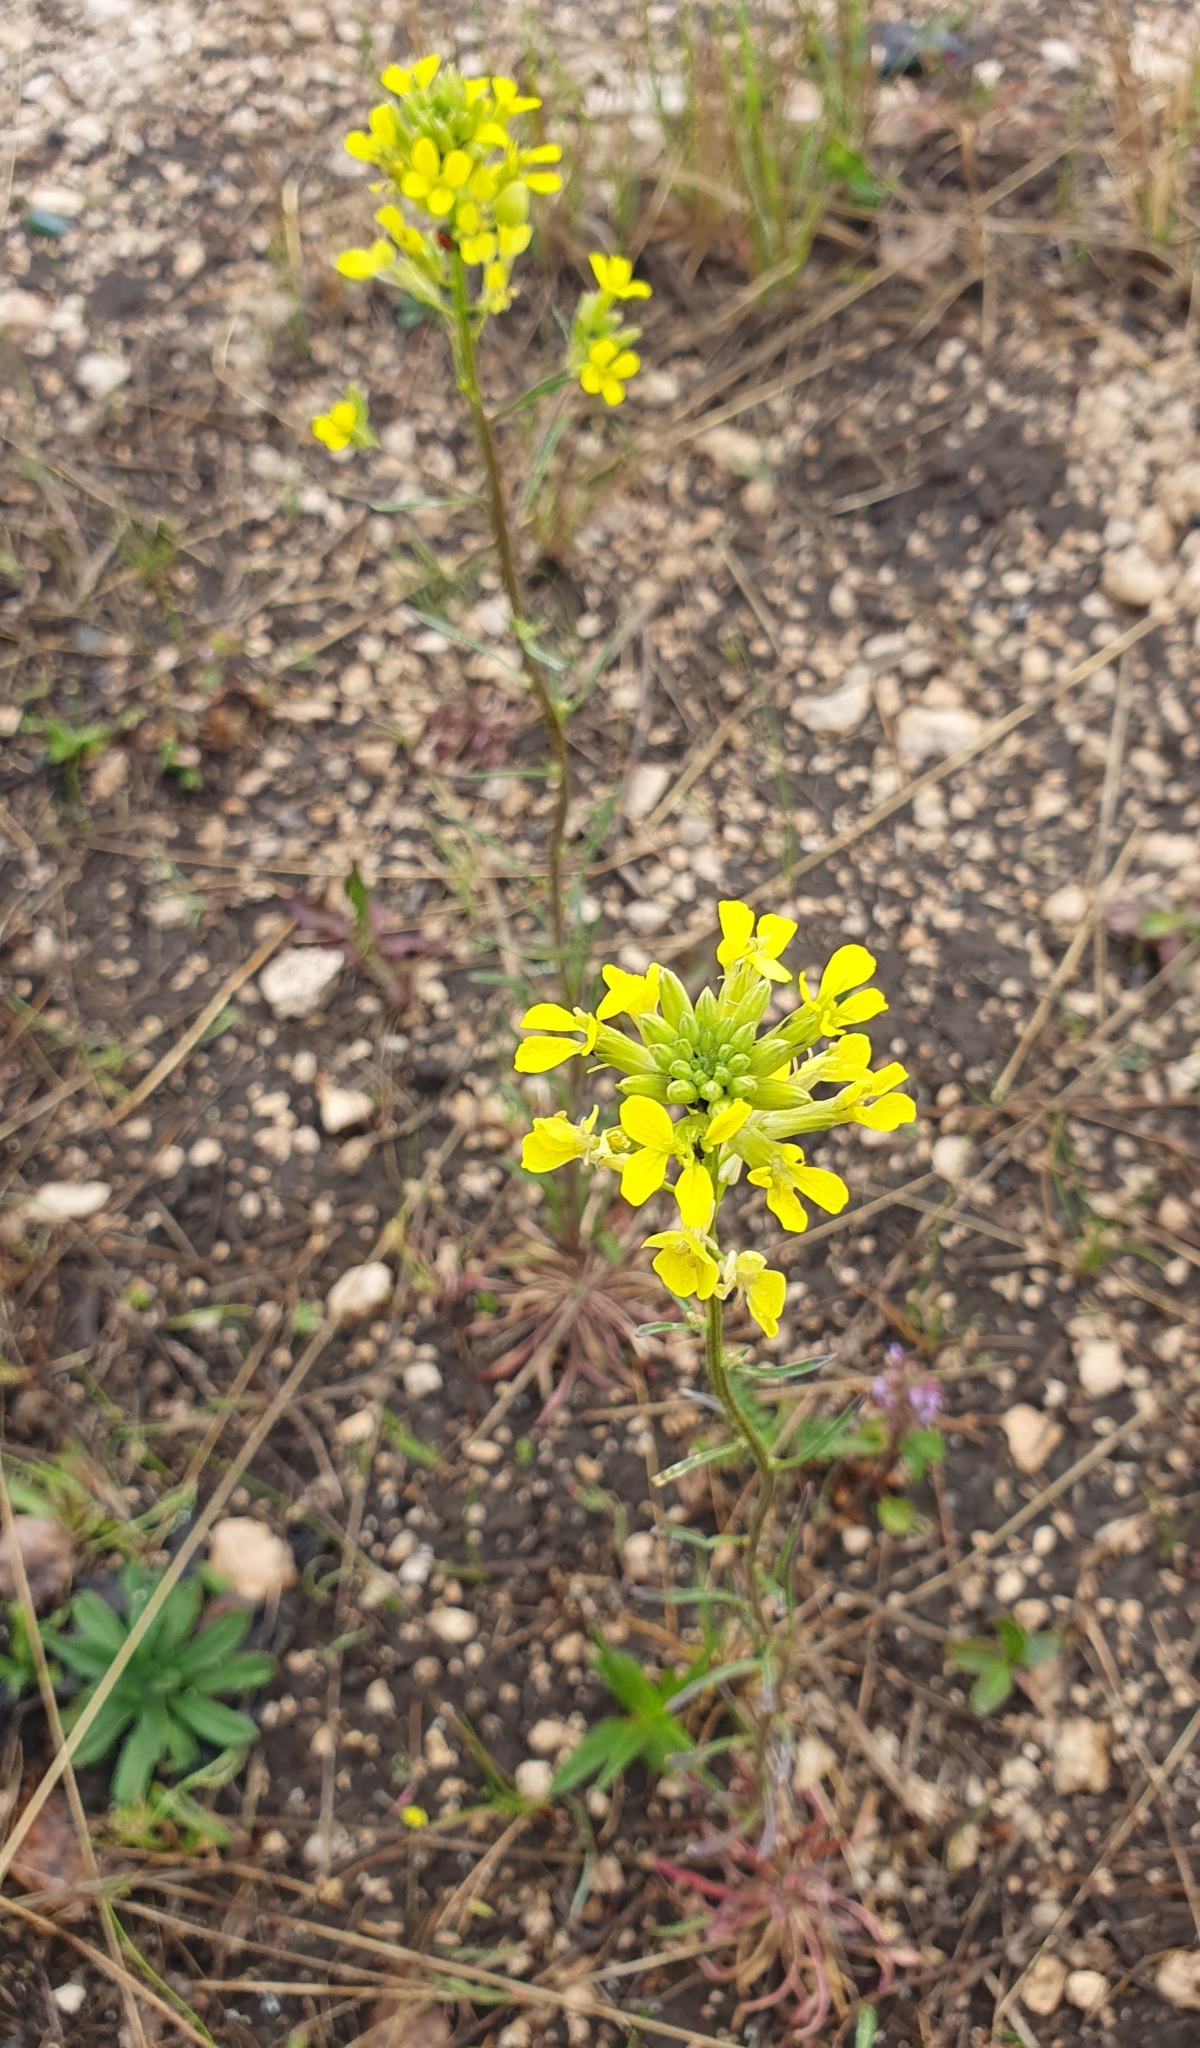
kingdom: Plantae
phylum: Tracheophyta
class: Magnoliopsida
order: Brassicales
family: Brassicaceae
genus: Erysimum
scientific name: Erysimum diffusum
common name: Diffuse wallflower
